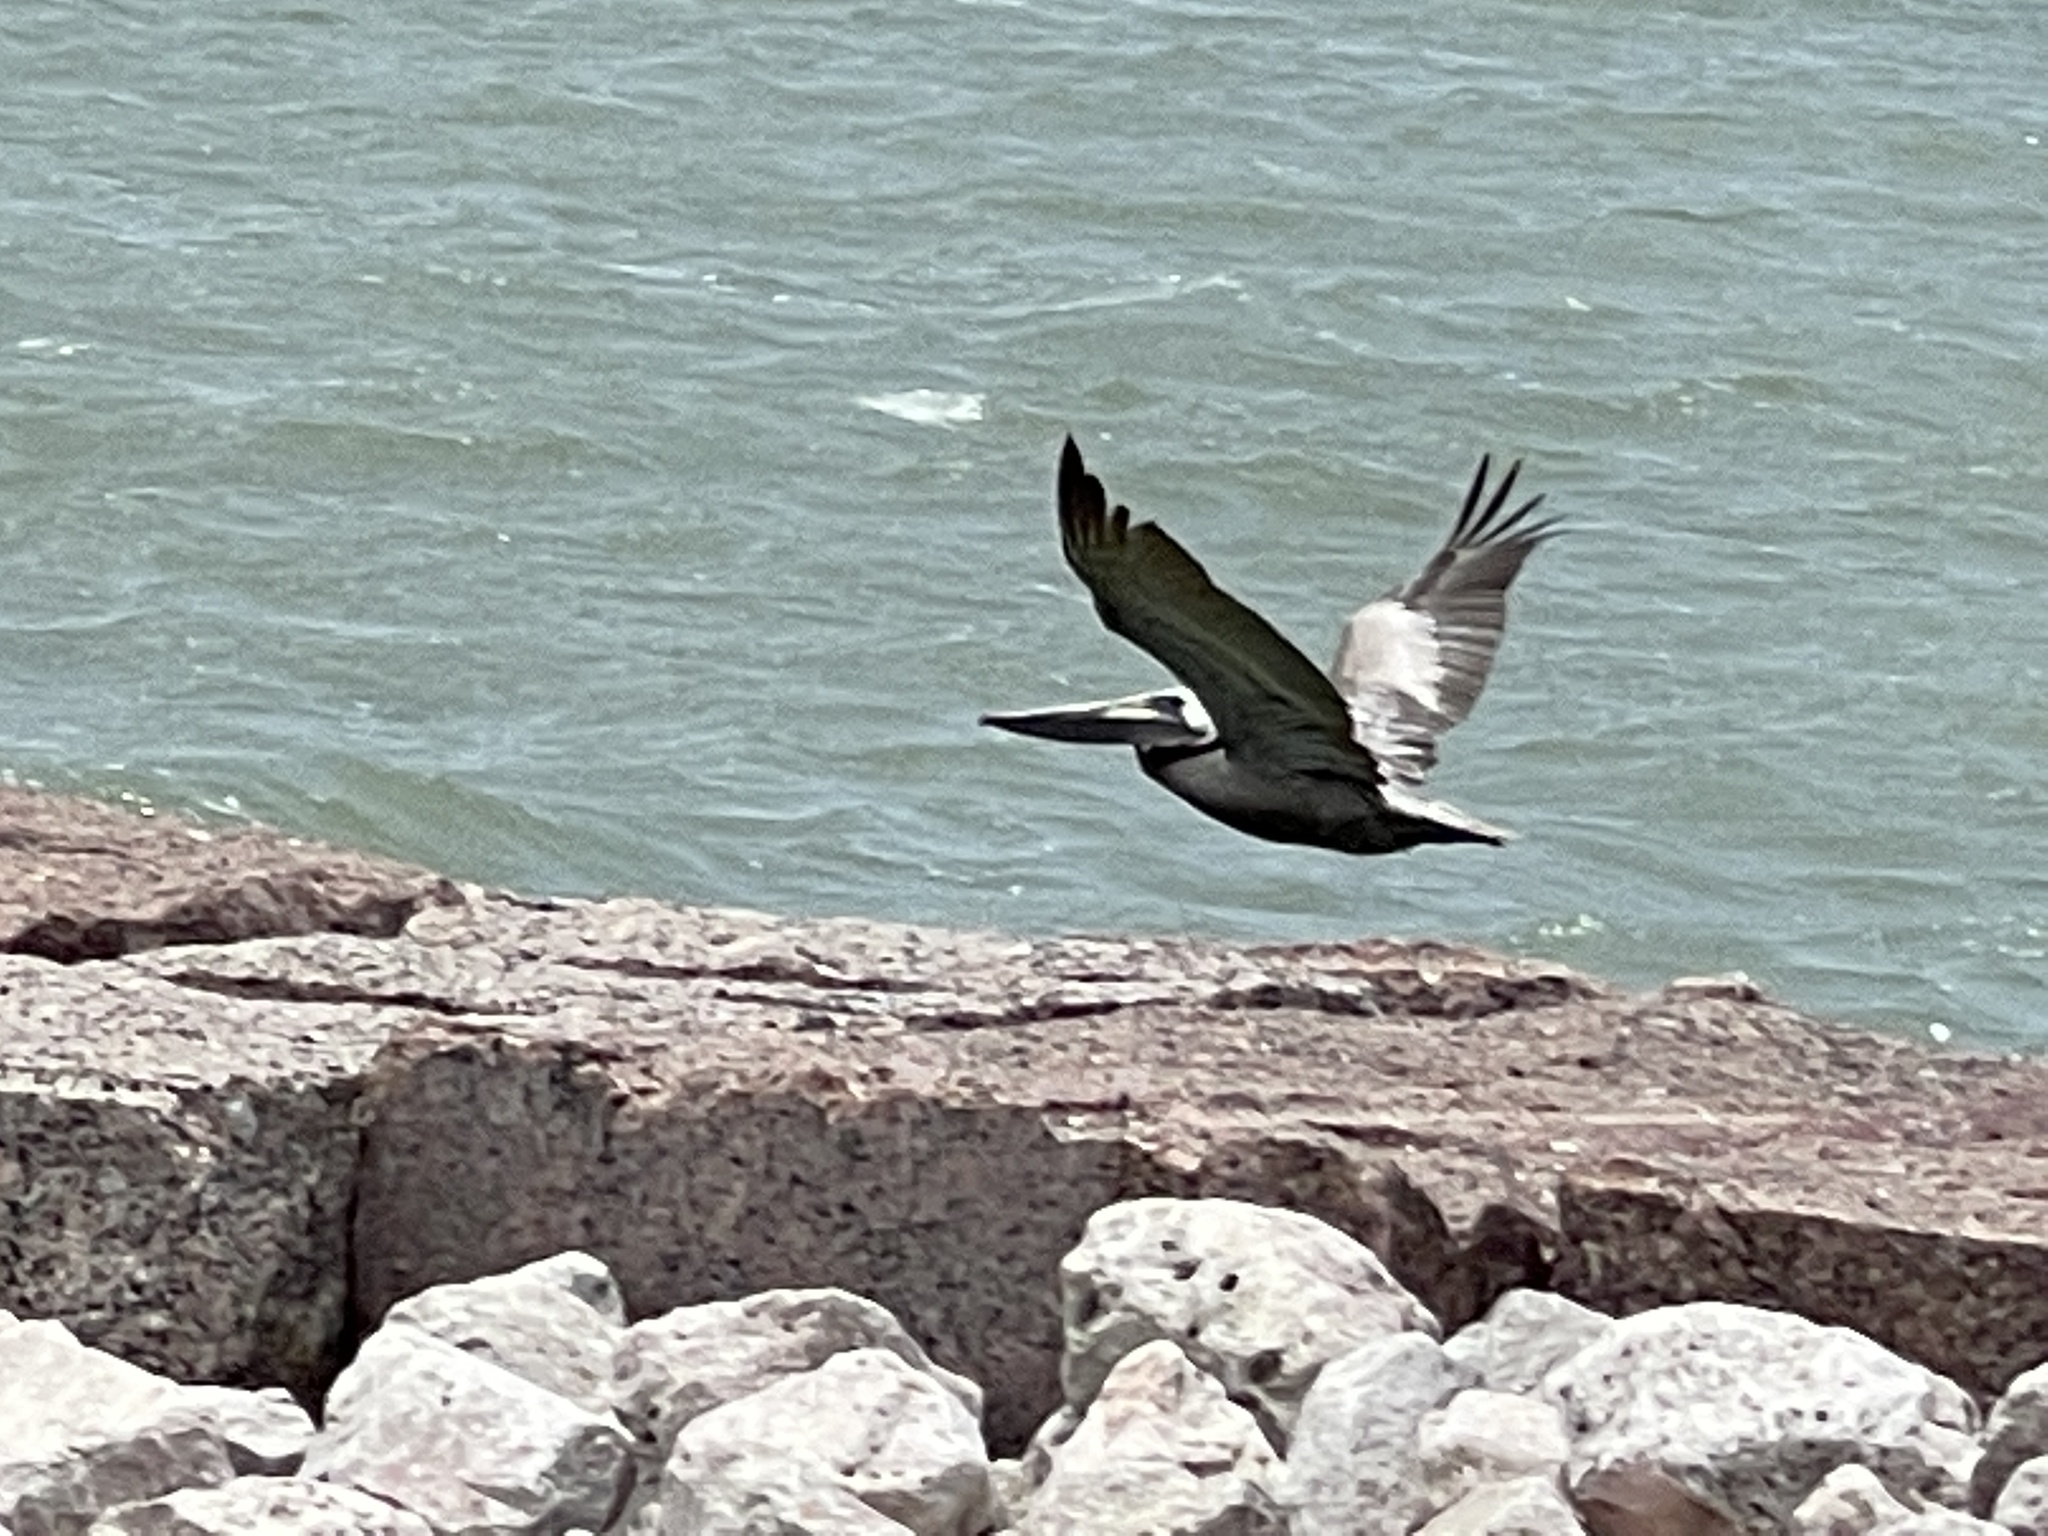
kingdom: Animalia
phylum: Chordata
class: Aves
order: Pelecaniformes
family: Pelecanidae
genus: Pelecanus
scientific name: Pelecanus occidentalis
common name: Brown pelican
